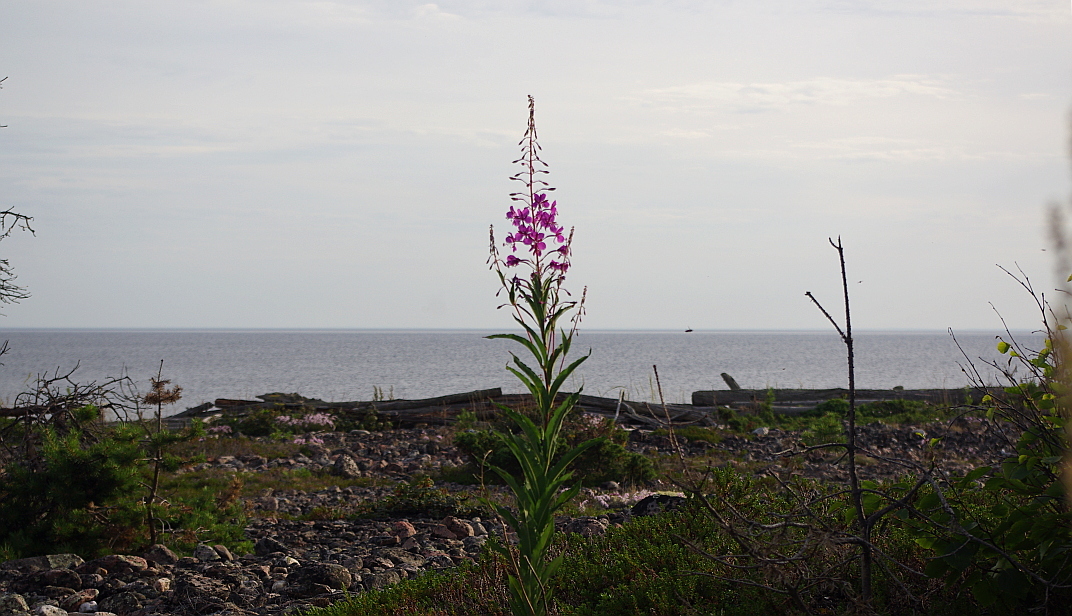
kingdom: Plantae
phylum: Tracheophyta
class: Magnoliopsida
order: Myrtales
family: Onagraceae
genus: Chamaenerion
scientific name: Chamaenerion angustifolium
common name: Fireweed
